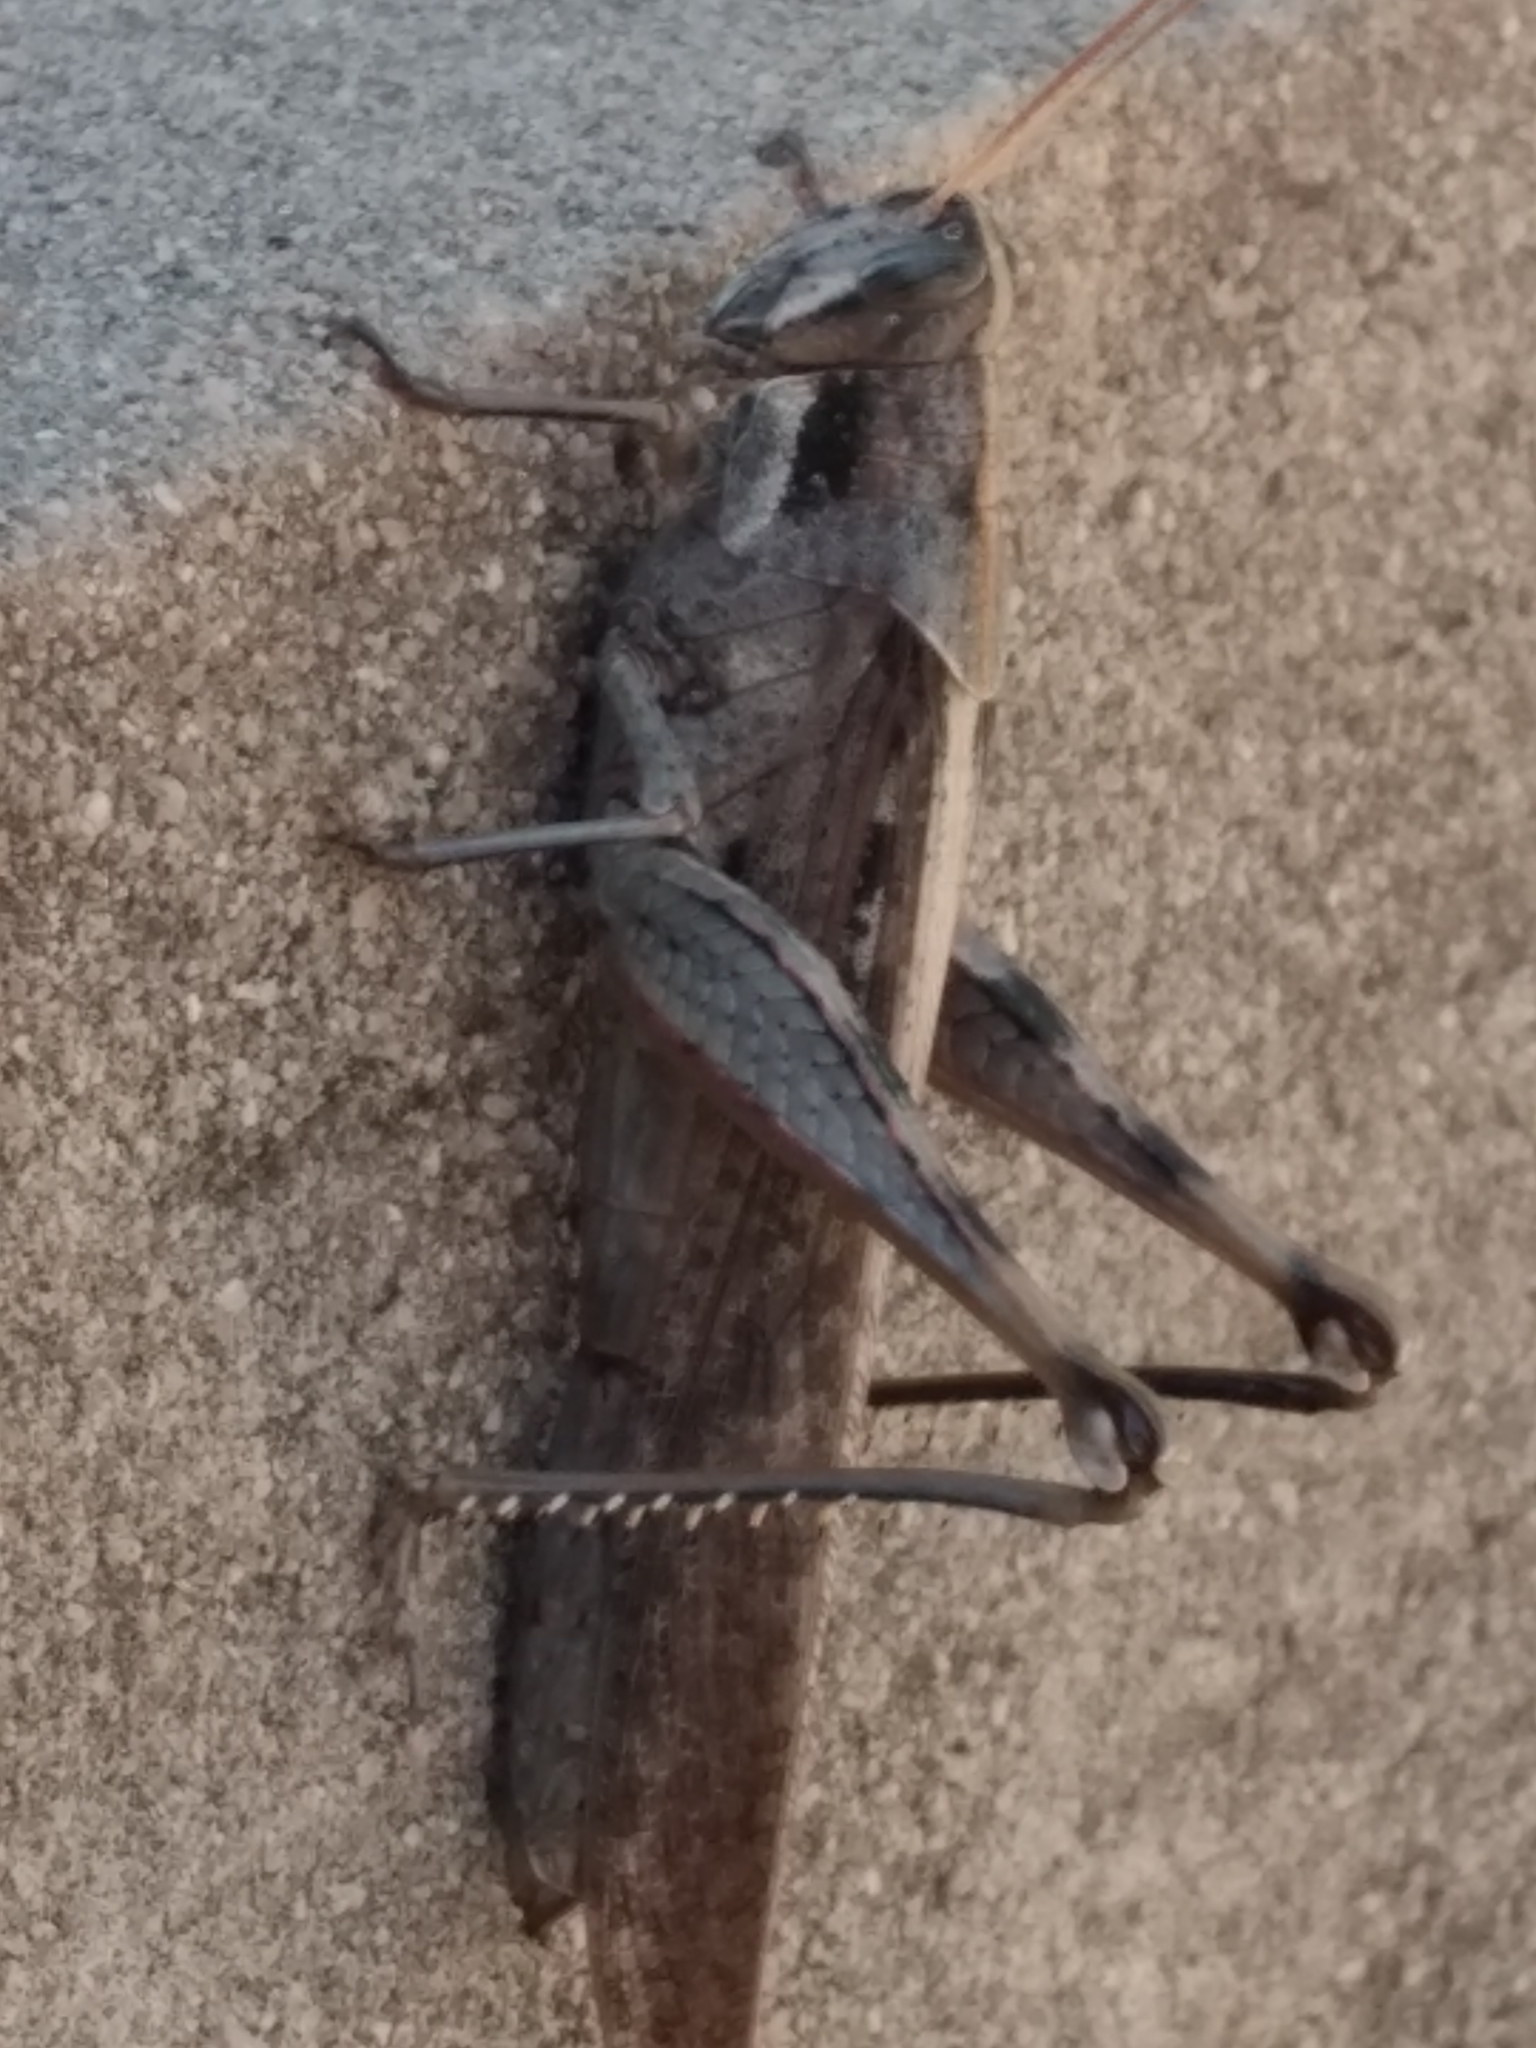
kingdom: Animalia
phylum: Arthropoda
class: Insecta
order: Orthoptera
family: Acrididae
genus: Schistocerca
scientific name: Schistocerca nitens
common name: Vagrant grasshopper
